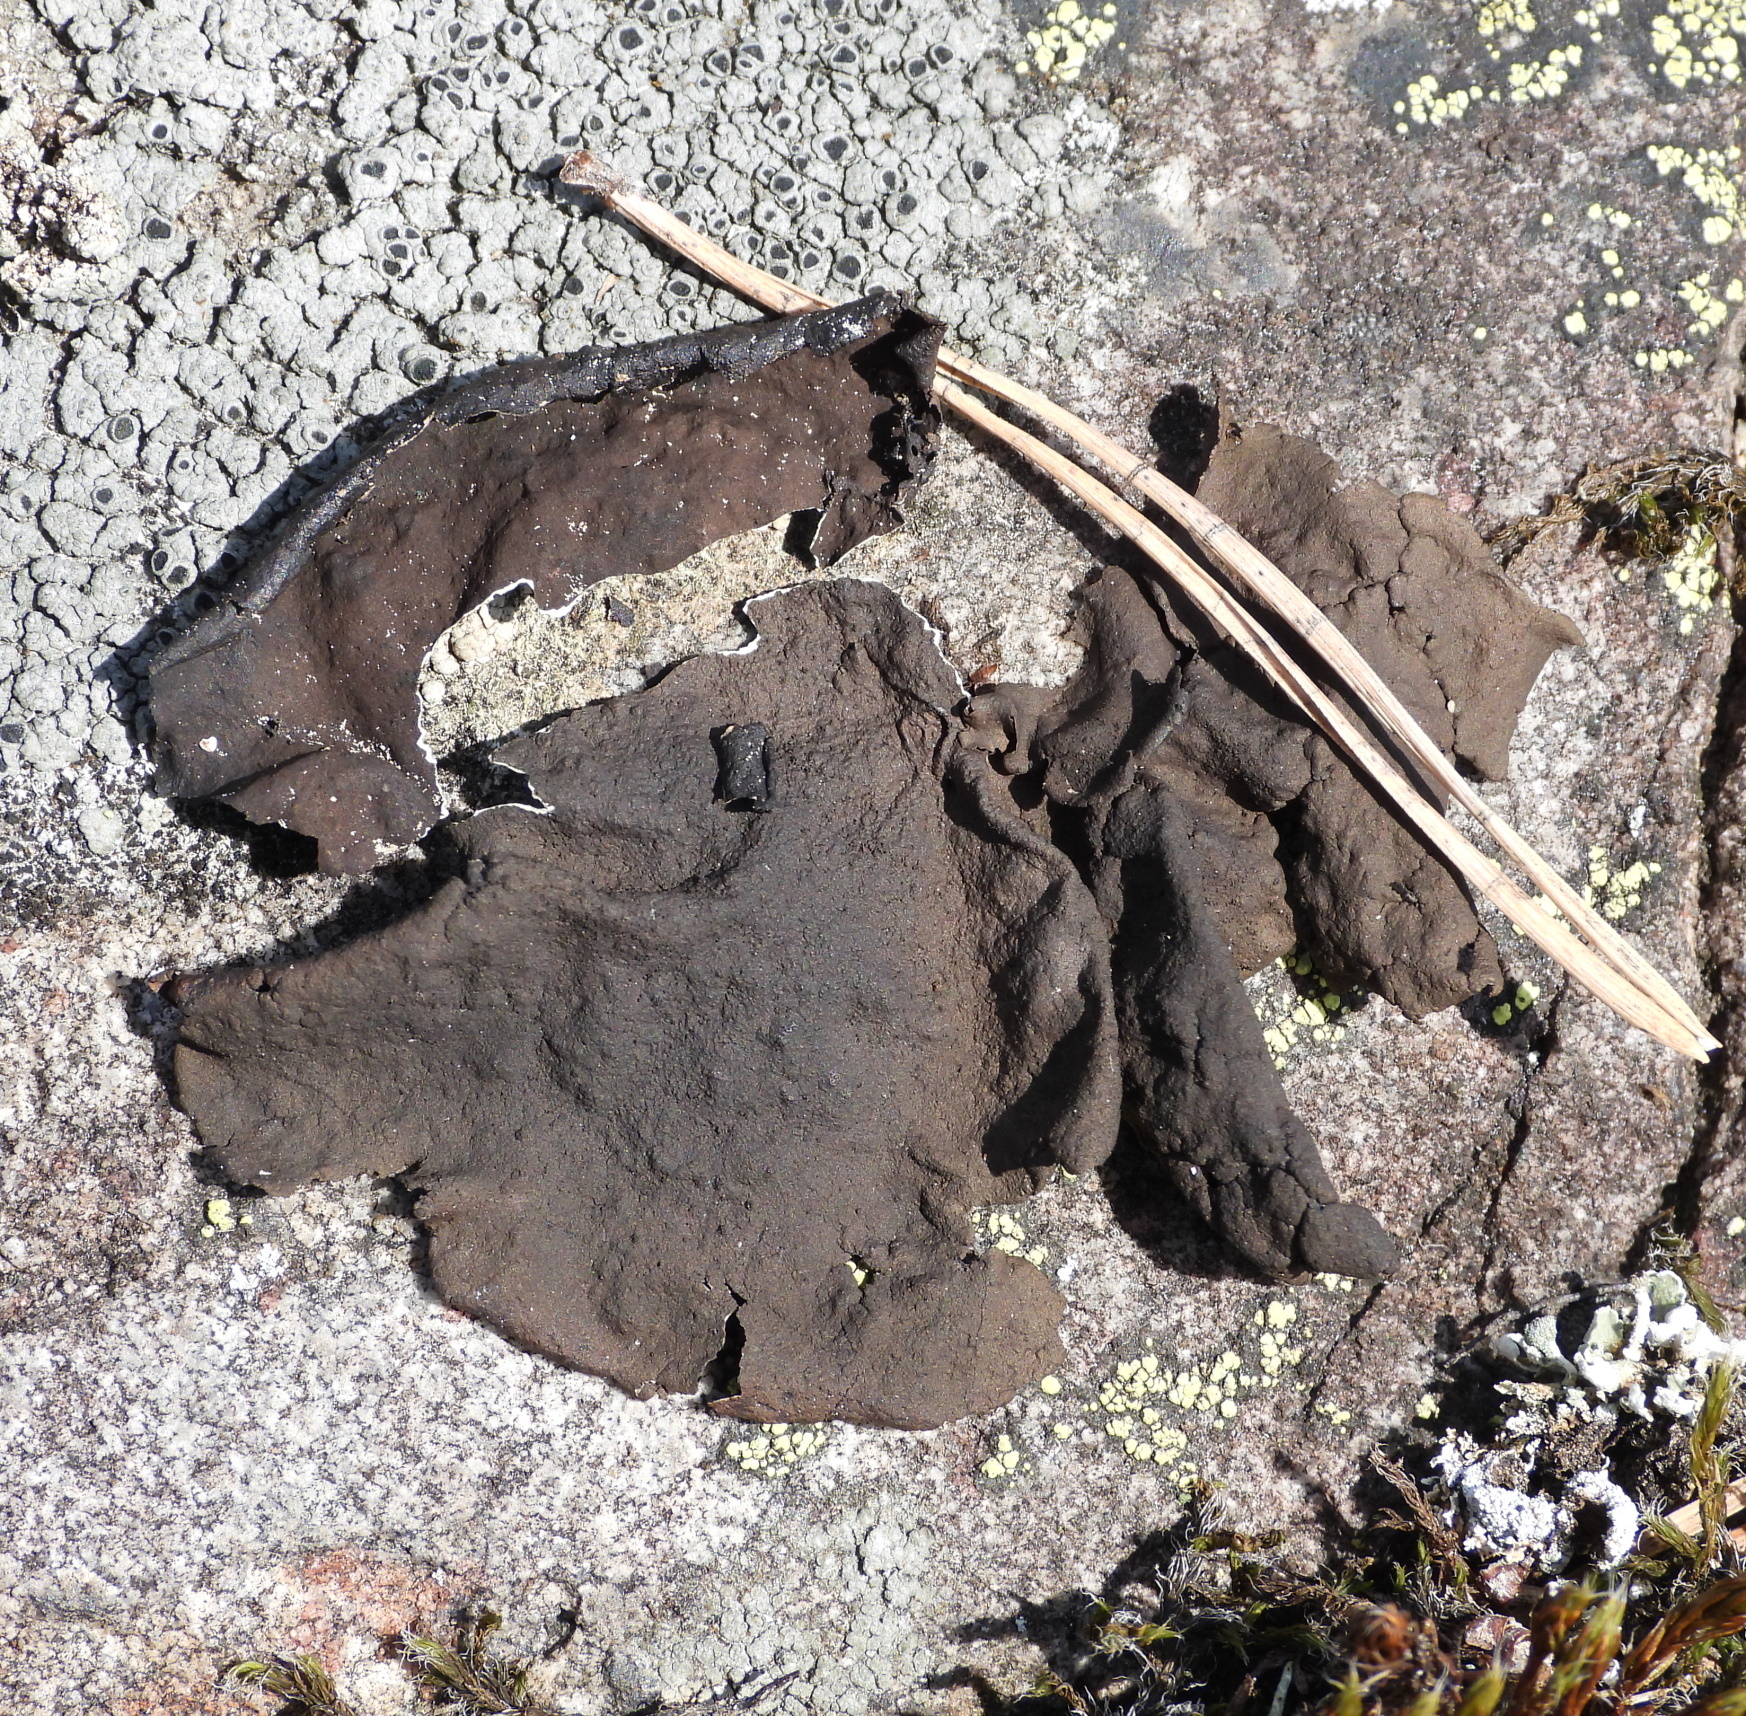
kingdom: Fungi
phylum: Ascomycota
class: Lecanoromycetes
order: Umbilicariales
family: Umbilicariaceae
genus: Umbilicaria
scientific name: Umbilicaria polyphylla
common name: Petalled rocktripe lichen
